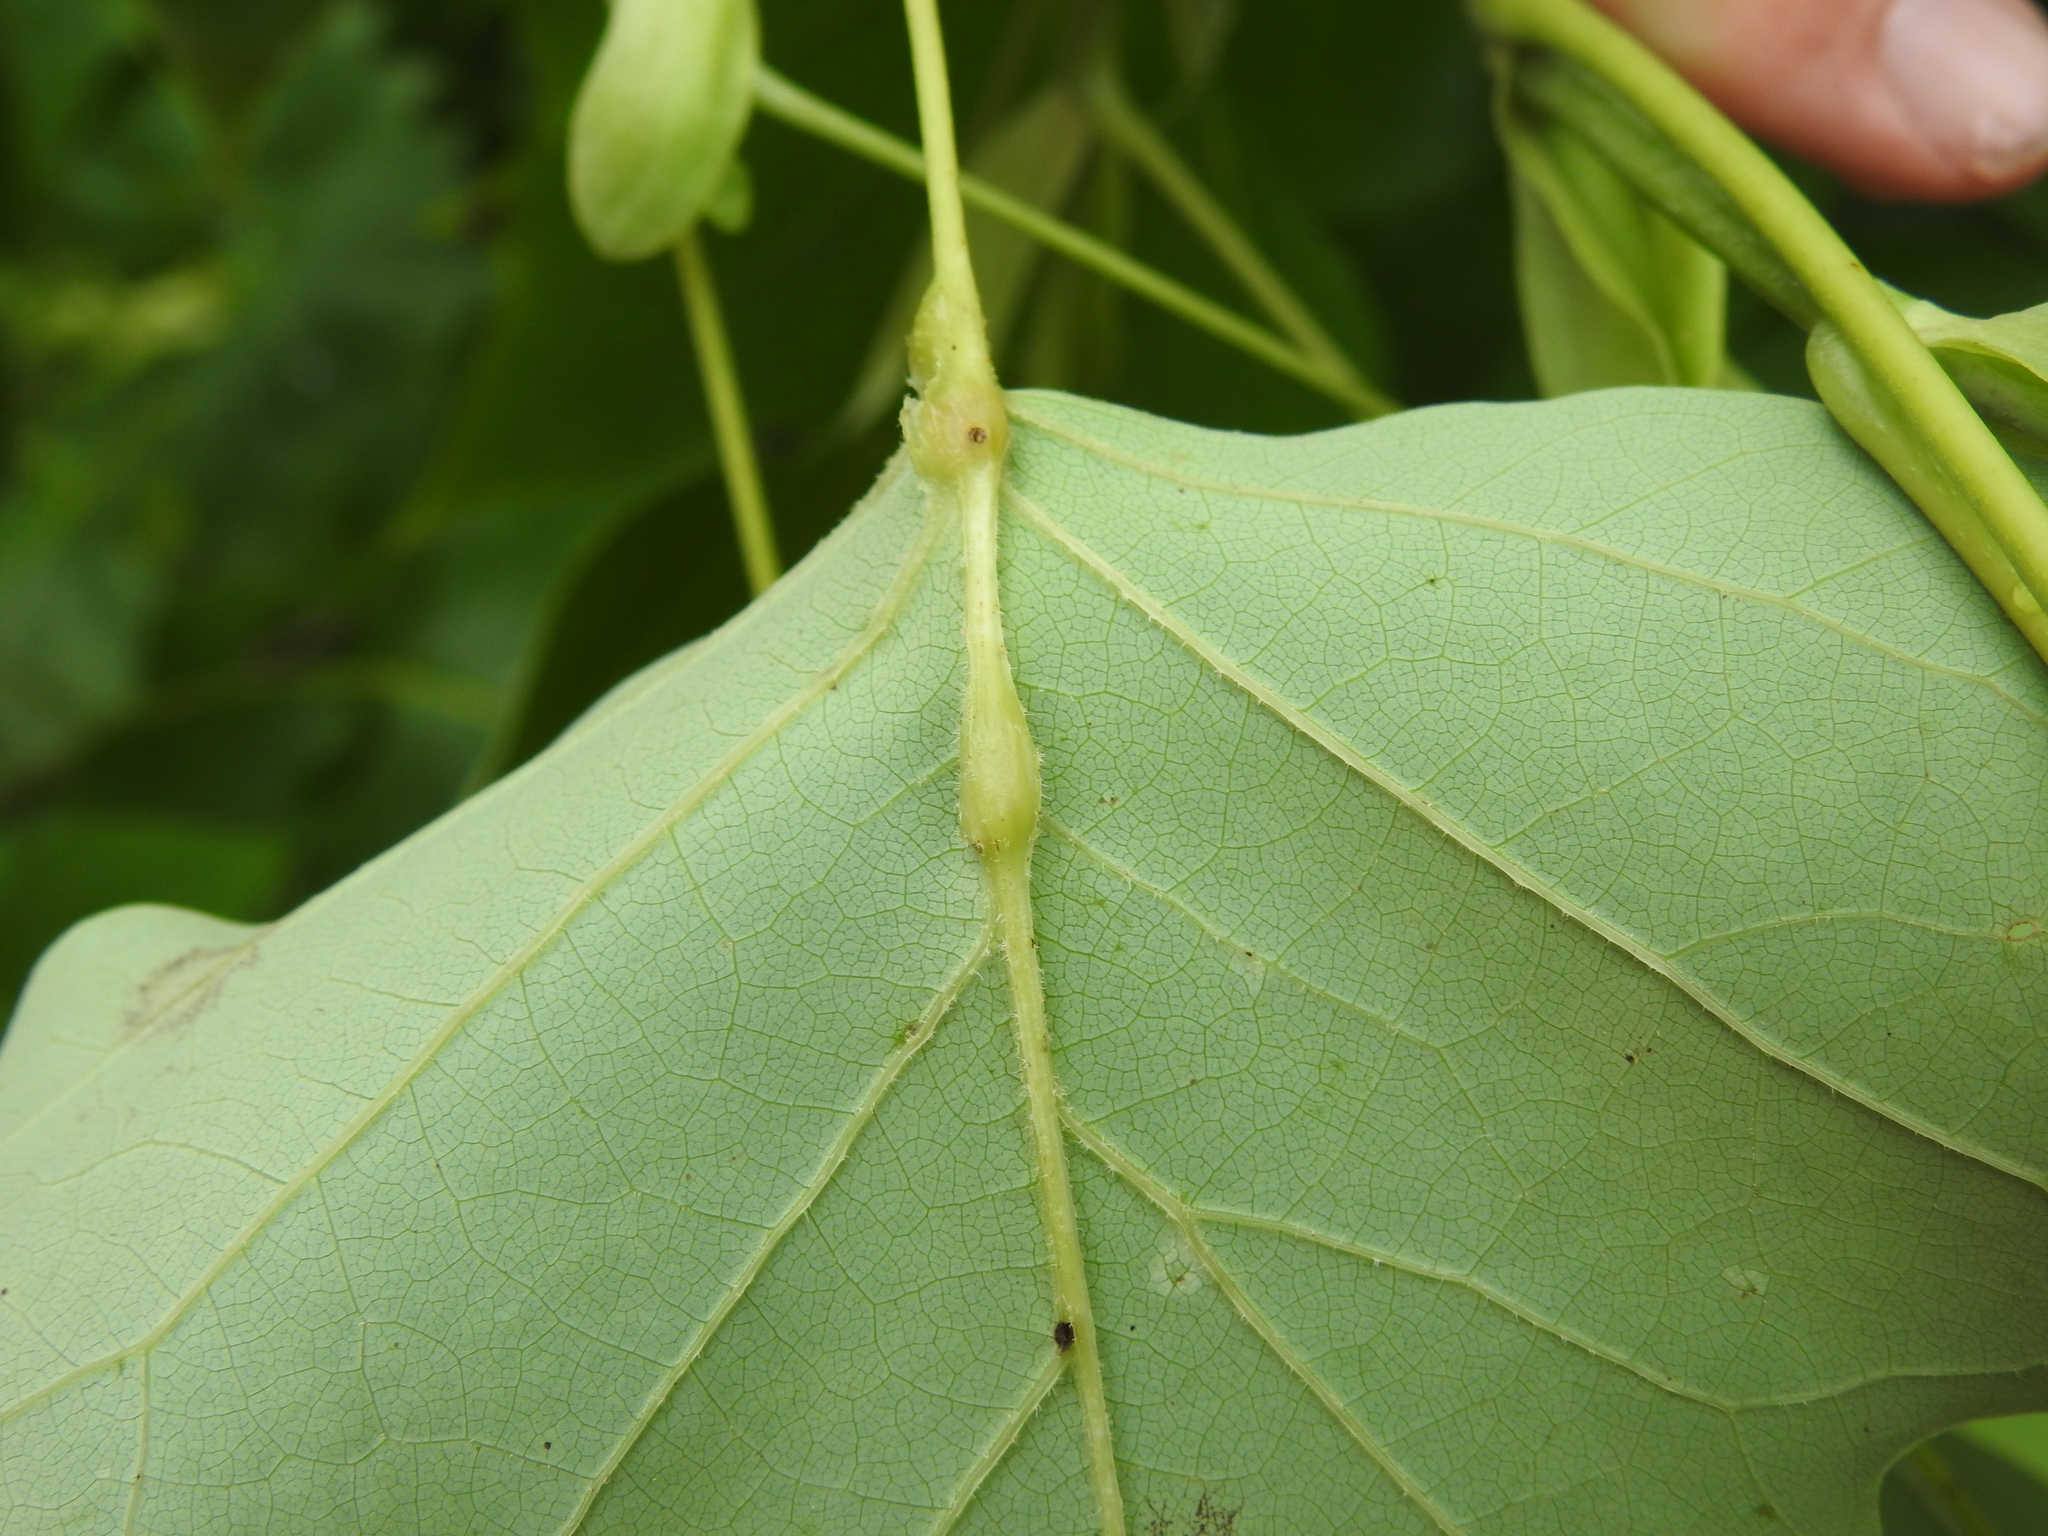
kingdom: Animalia
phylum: Arthropoda
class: Insecta
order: Diptera
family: Cecidomyiidae
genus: Resseliella
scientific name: Resseliella tulipiferae
